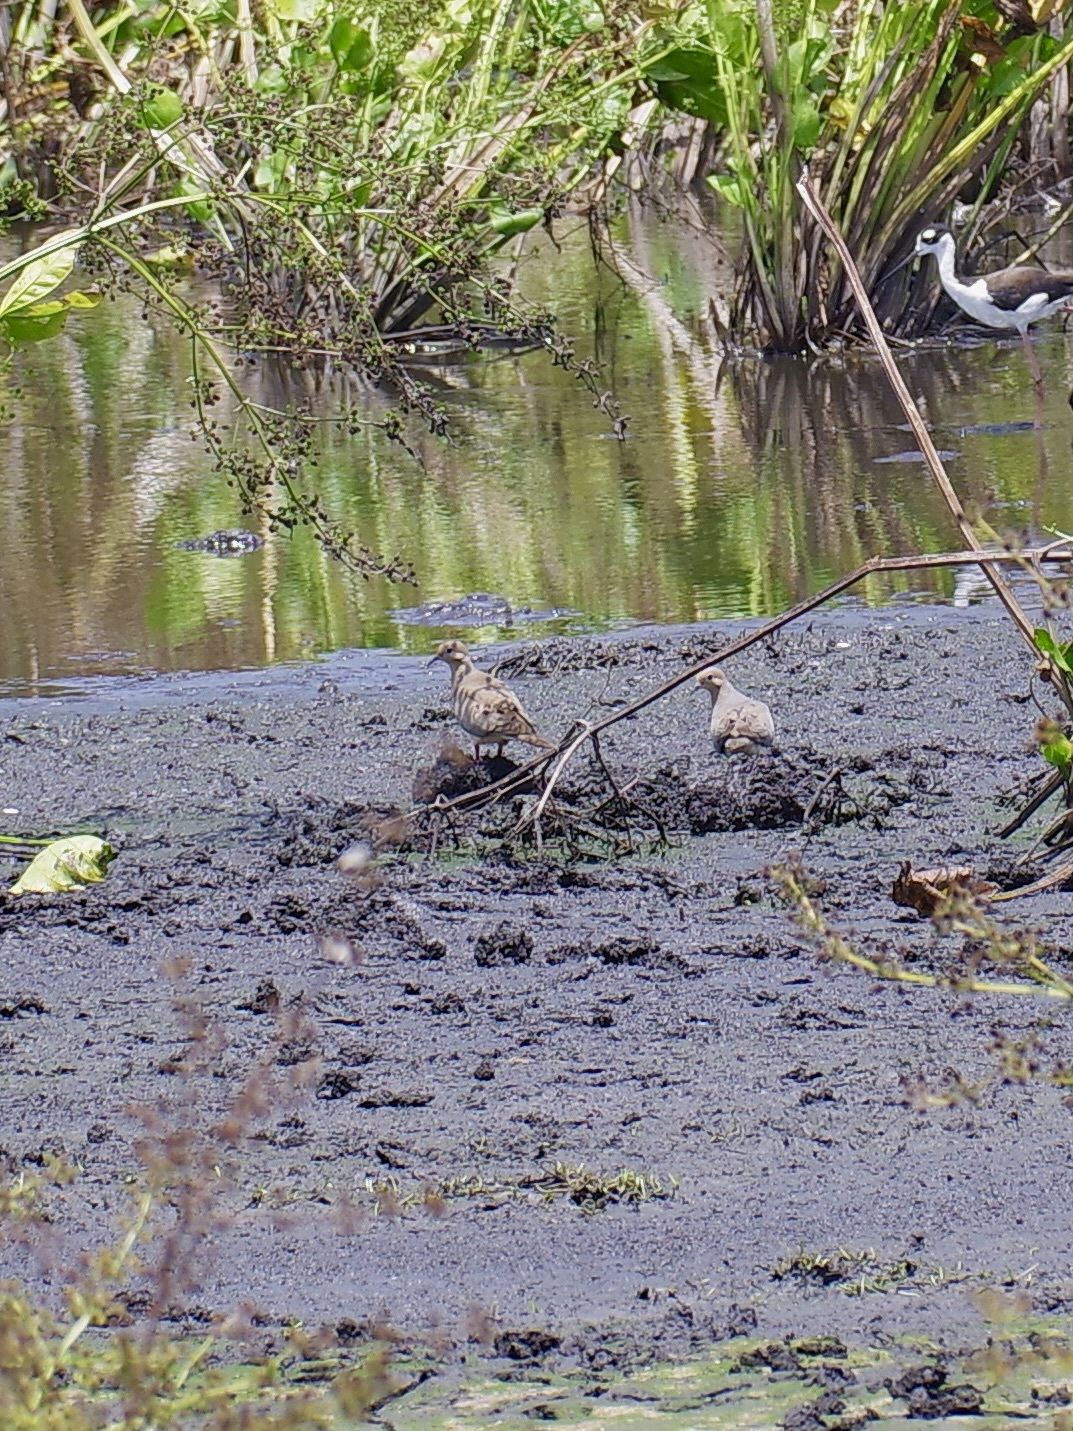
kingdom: Animalia
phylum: Chordata
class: Aves
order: Columbiformes
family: Columbidae
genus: Zenaida
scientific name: Zenaida macroura
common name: Mourning dove
